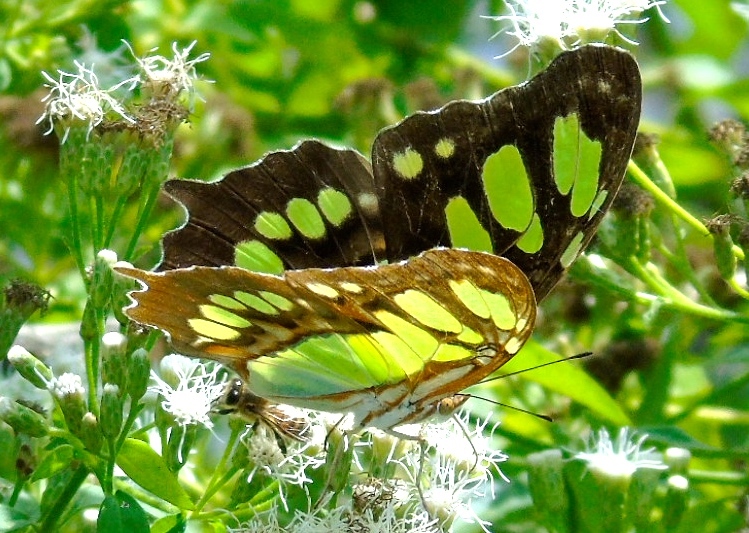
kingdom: Animalia
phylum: Arthropoda
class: Insecta
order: Lepidoptera
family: Nymphalidae
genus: Siproeta
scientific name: Siproeta stelenes
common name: Malachite
